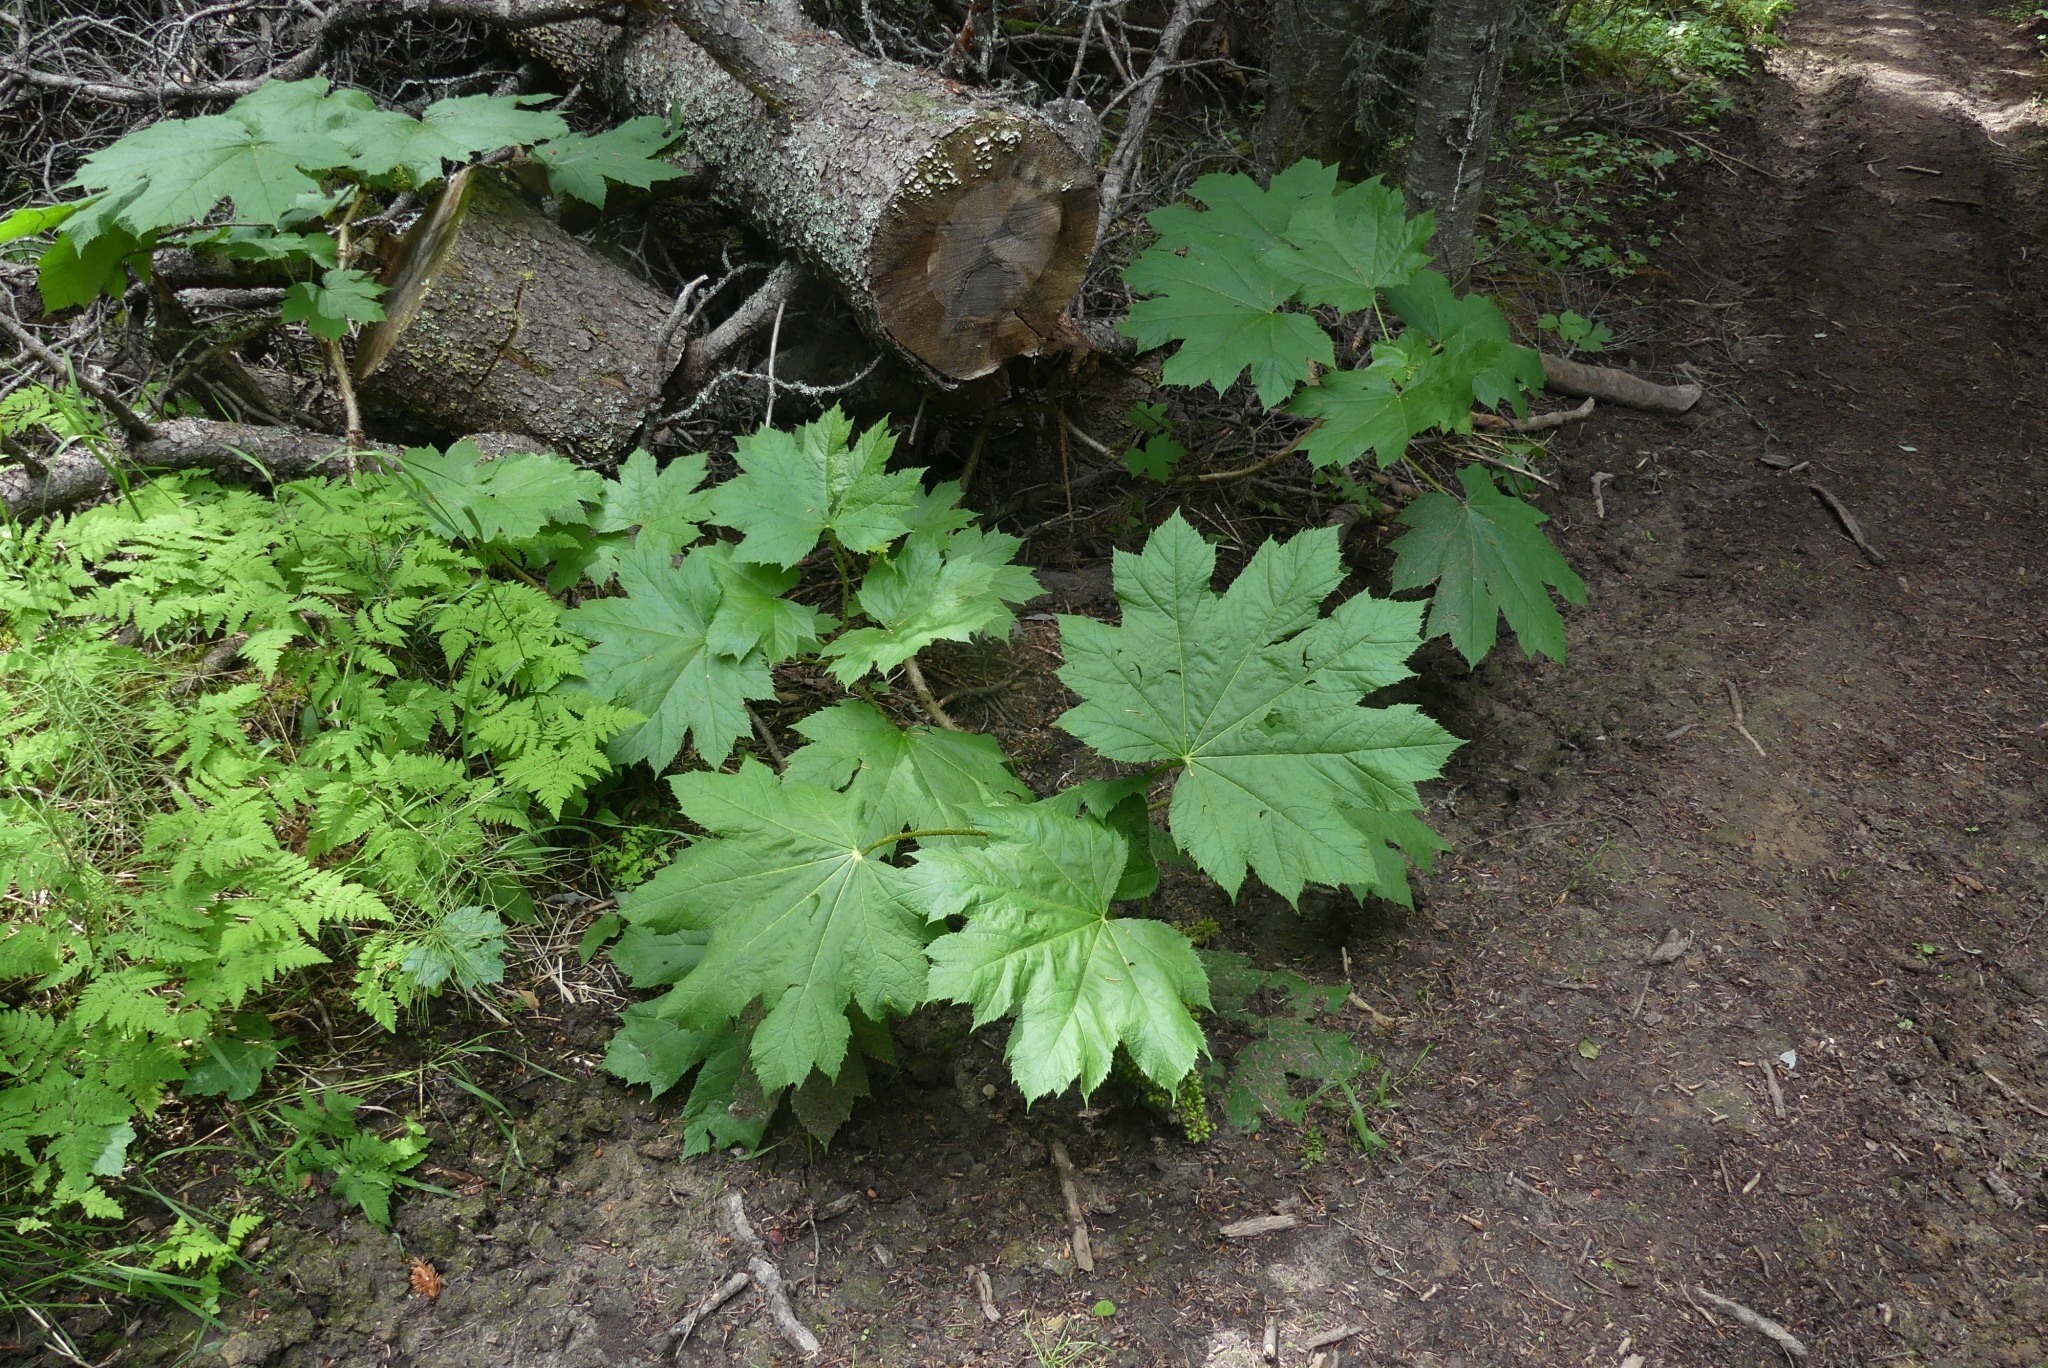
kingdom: Plantae
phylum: Tracheophyta
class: Magnoliopsida
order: Apiales
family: Araliaceae
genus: Oplopanax
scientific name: Oplopanax horridus
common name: Devil's walking-stick
